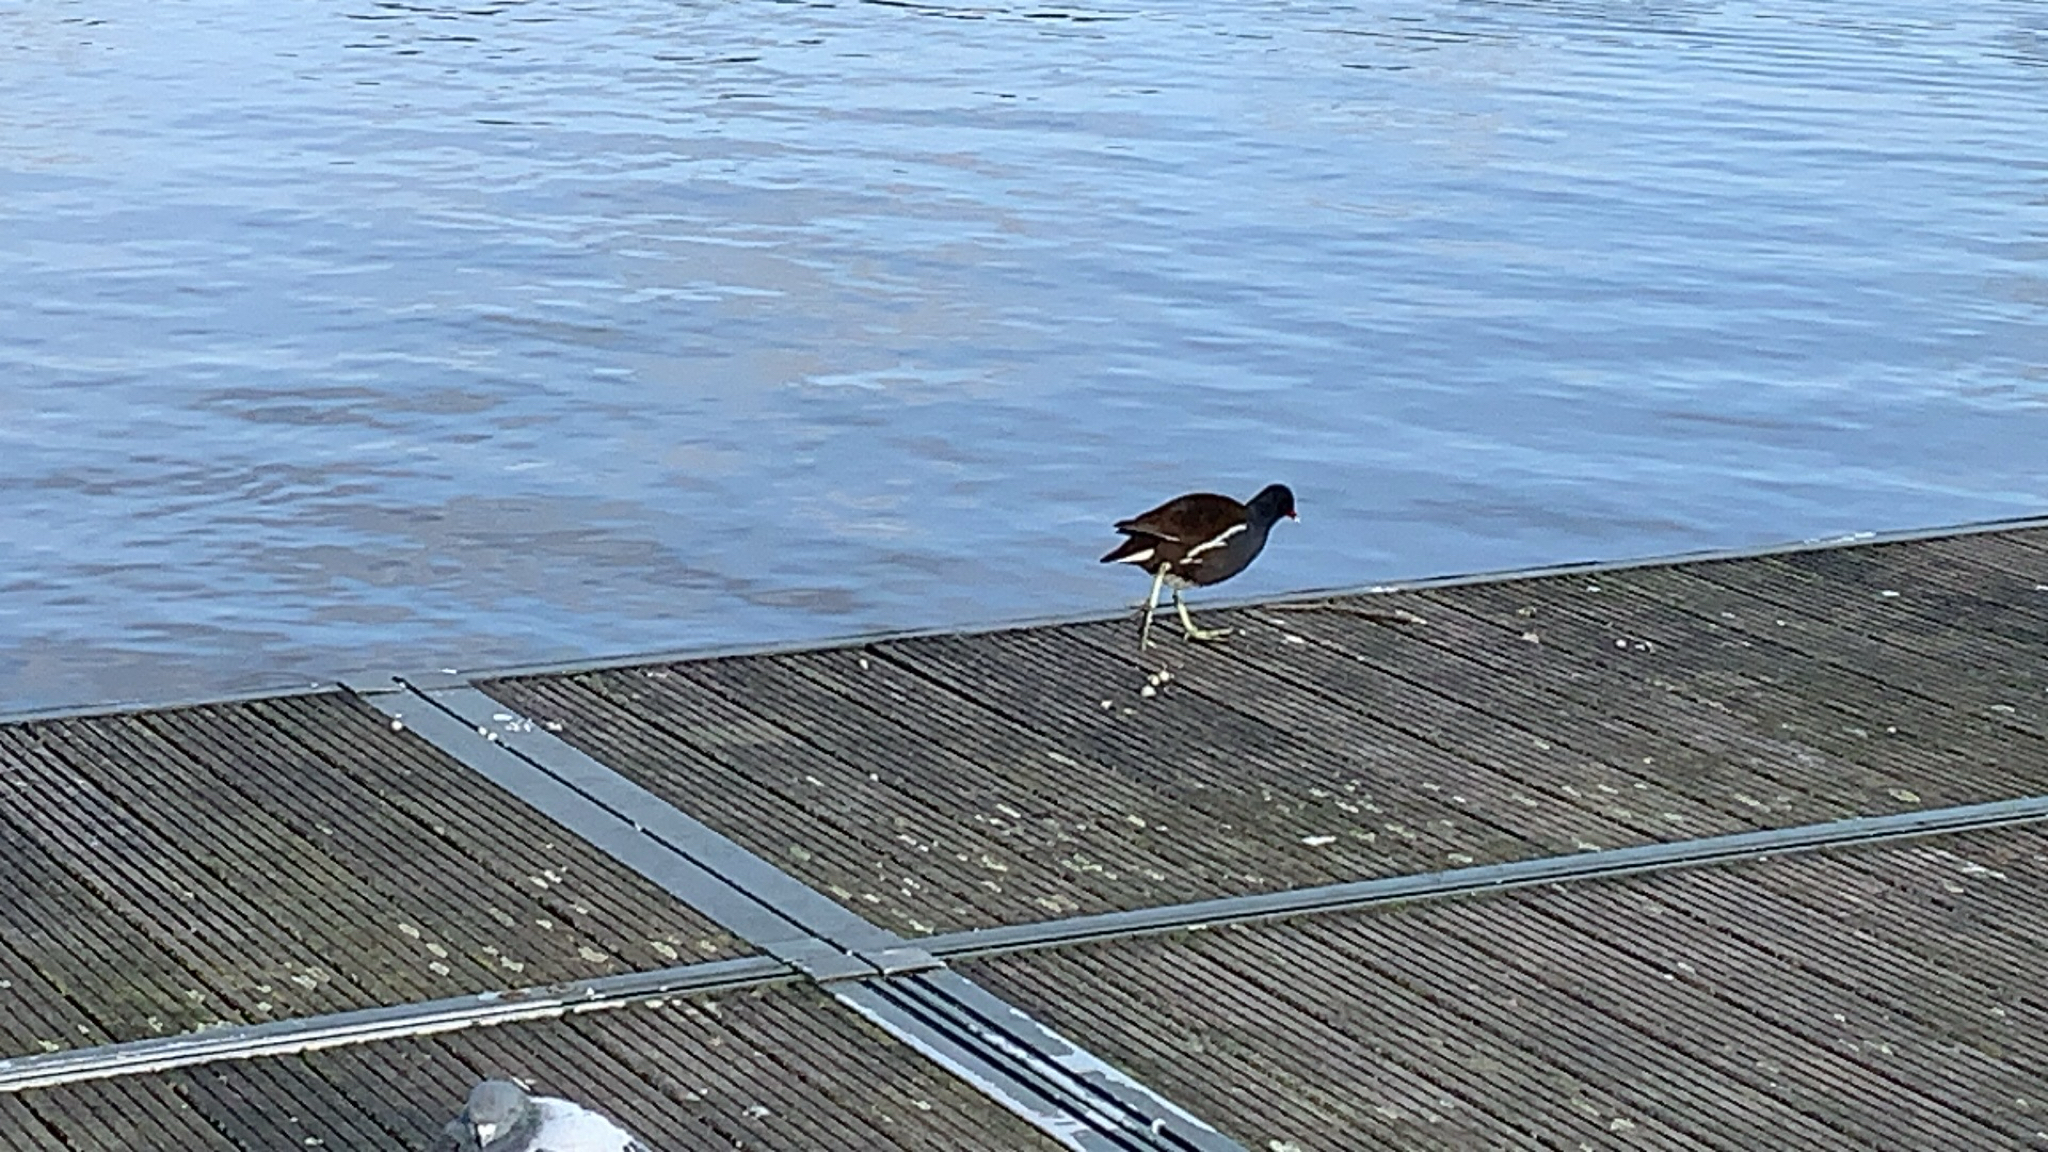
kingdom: Animalia
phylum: Chordata
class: Aves
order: Gruiformes
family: Rallidae
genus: Gallinula
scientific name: Gallinula chloropus
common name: Common moorhen
